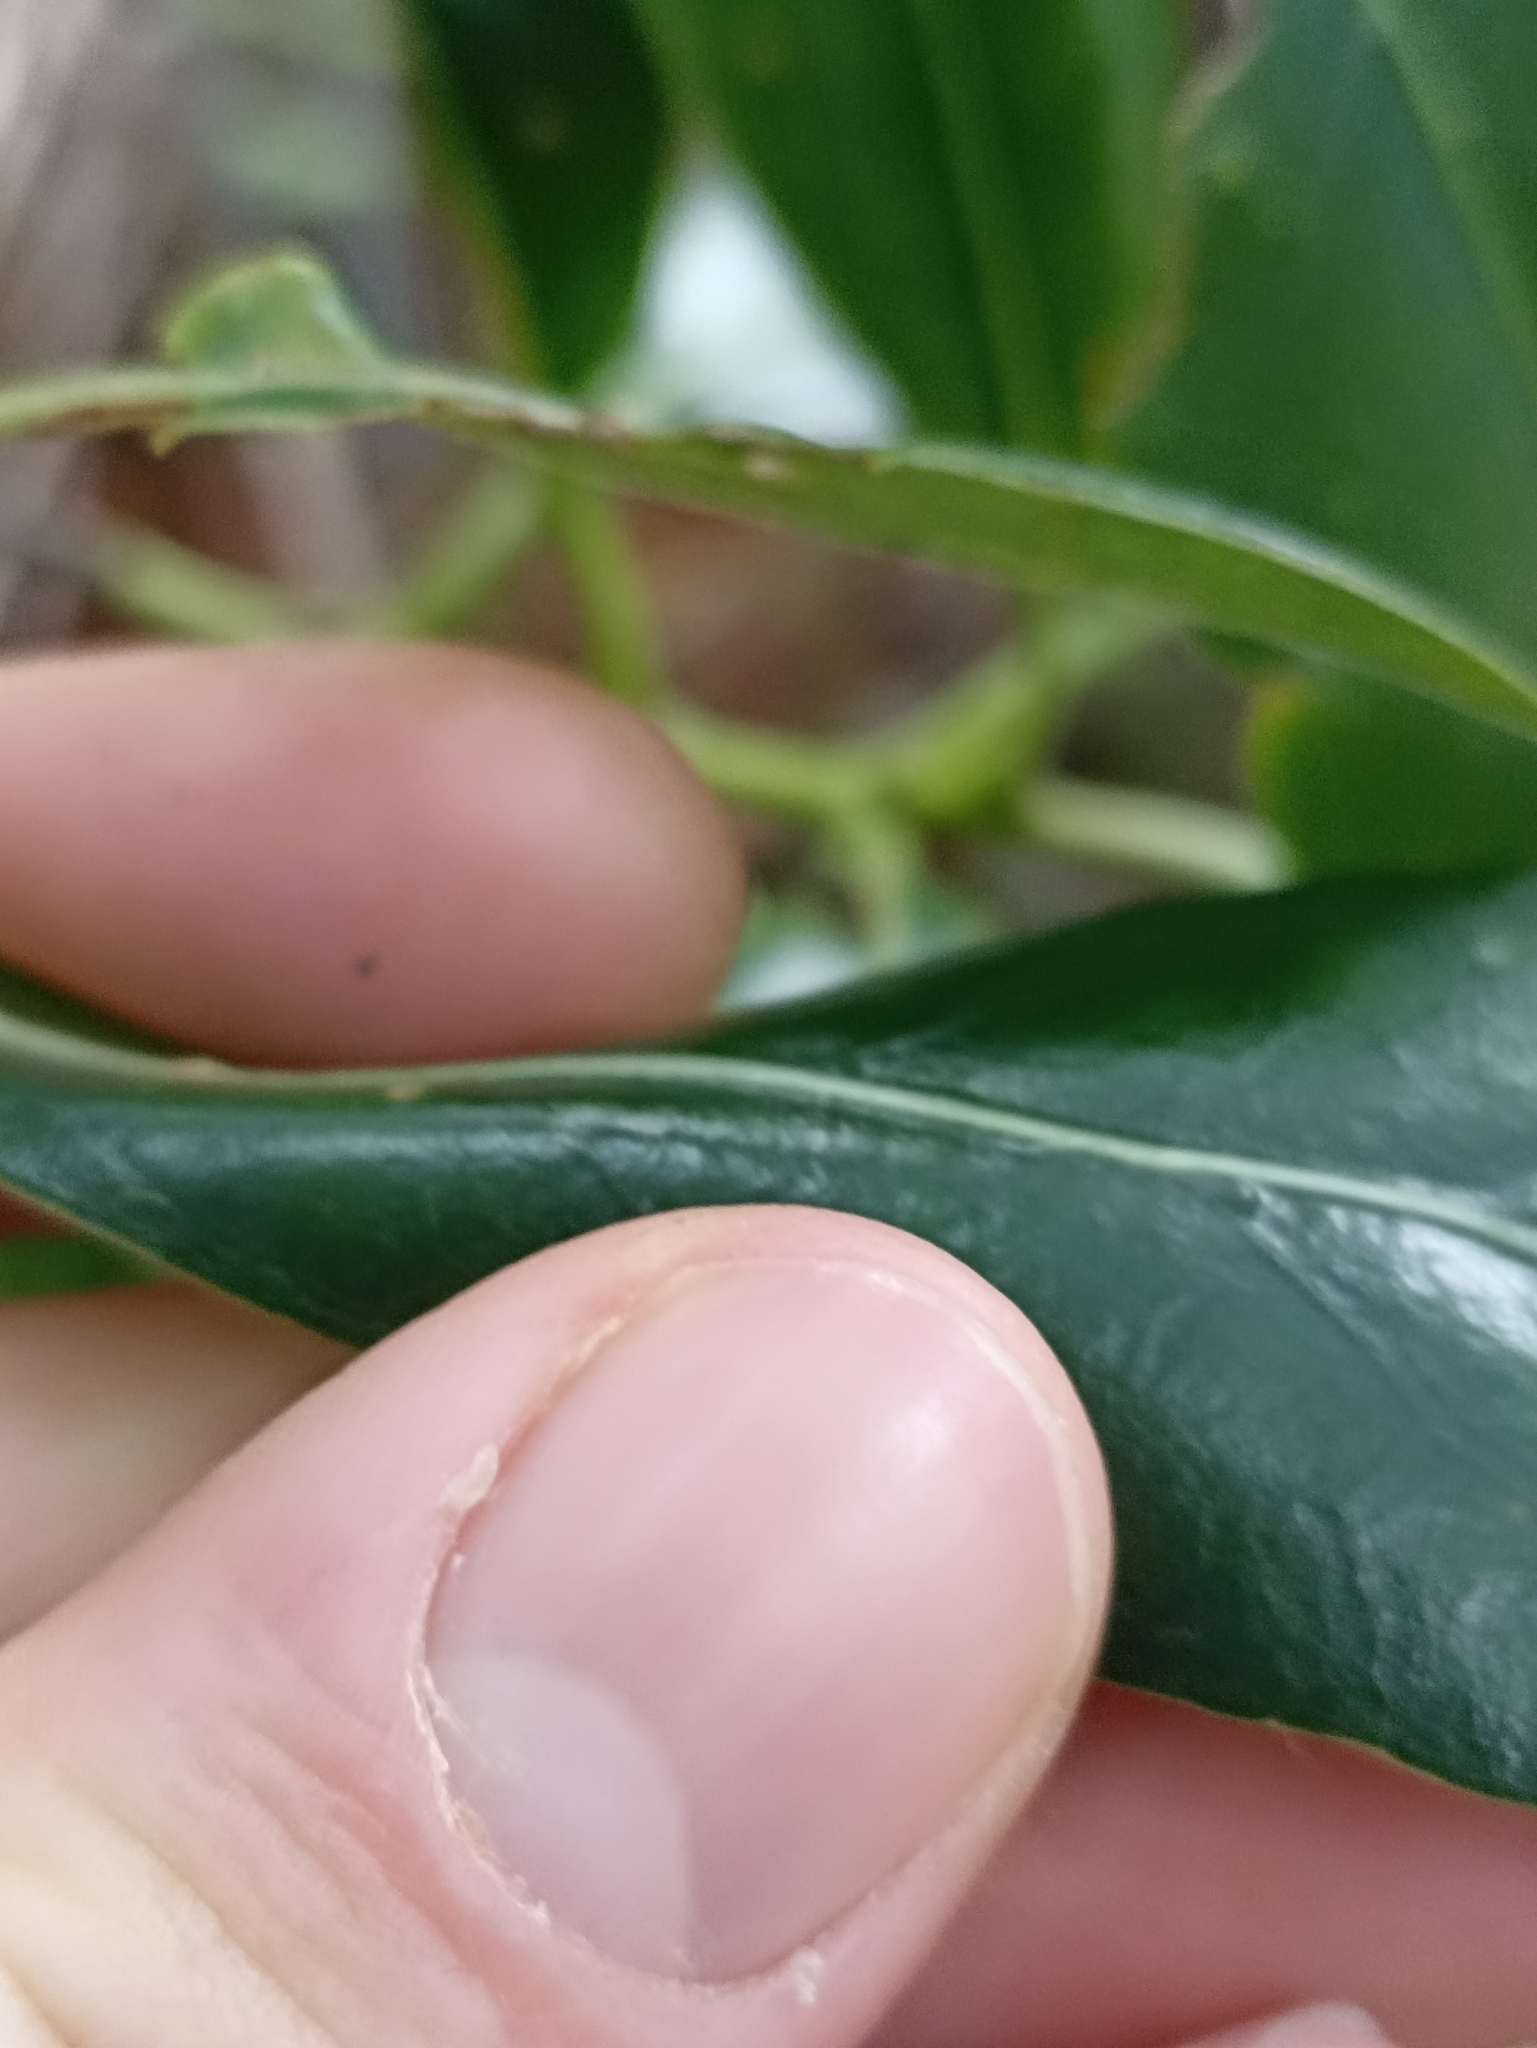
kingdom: Plantae
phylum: Tracheophyta
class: Magnoliopsida
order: Gentianales
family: Rubiaceae
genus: Coprosma
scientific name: Coprosma lucida
